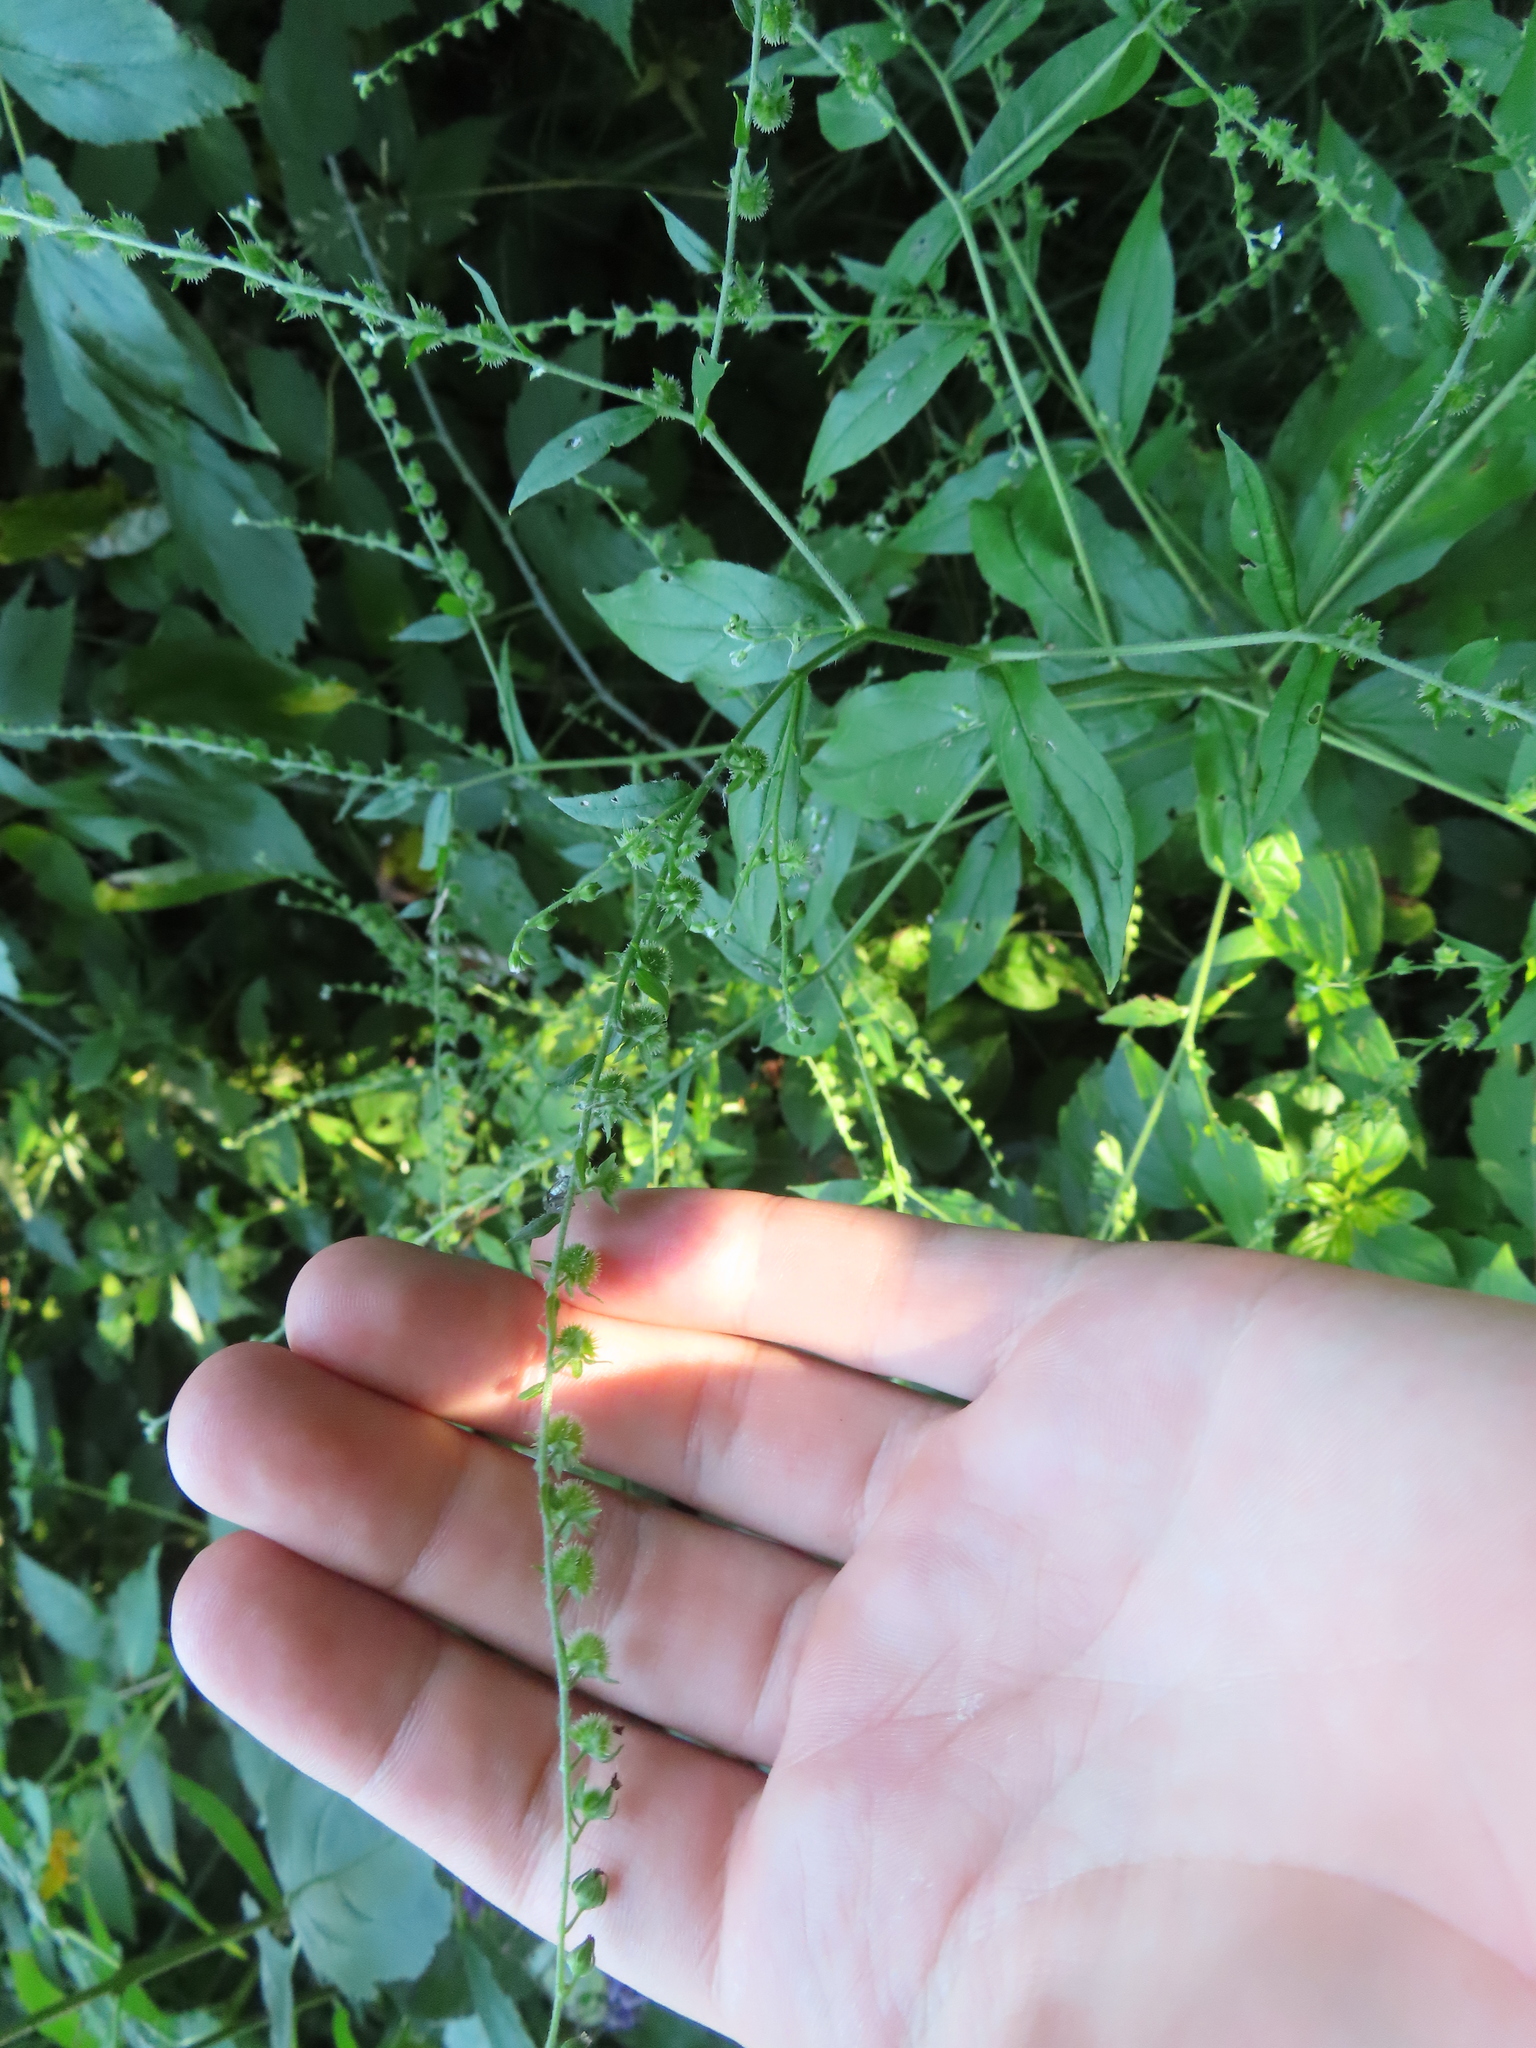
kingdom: Plantae
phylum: Tracheophyta
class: Magnoliopsida
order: Boraginales
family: Boraginaceae
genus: Hackelia
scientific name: Hackelia virginiana
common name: Beggar's-lice
